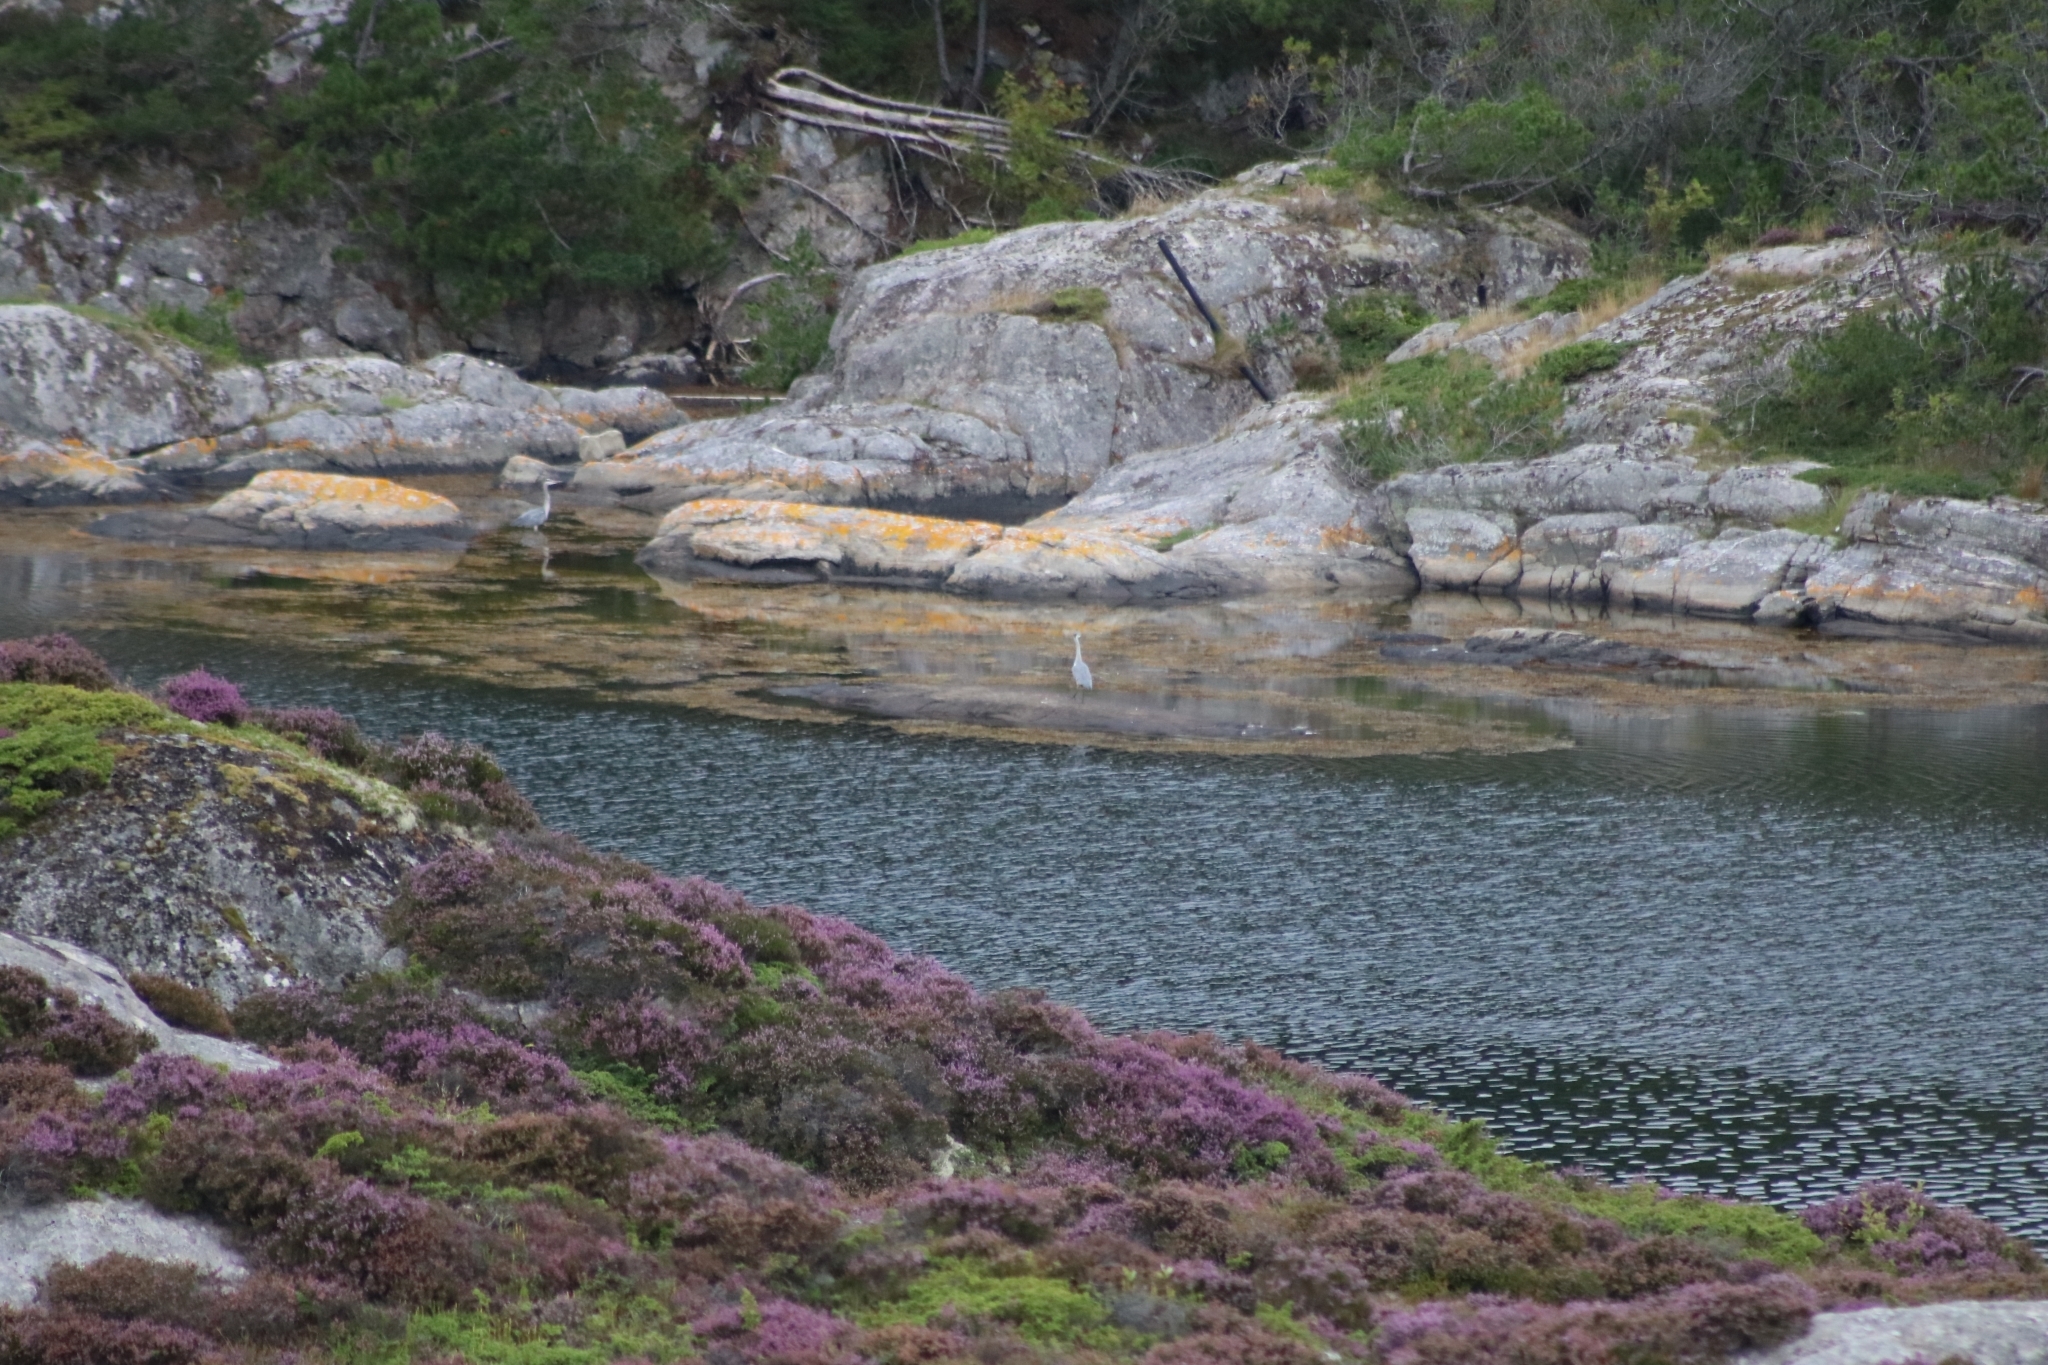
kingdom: Animalia
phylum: Chordata
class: Aves
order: Pelecaniformes
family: Ardeidae
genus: Ardea
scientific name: Ardea cinerea
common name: Grey heron
